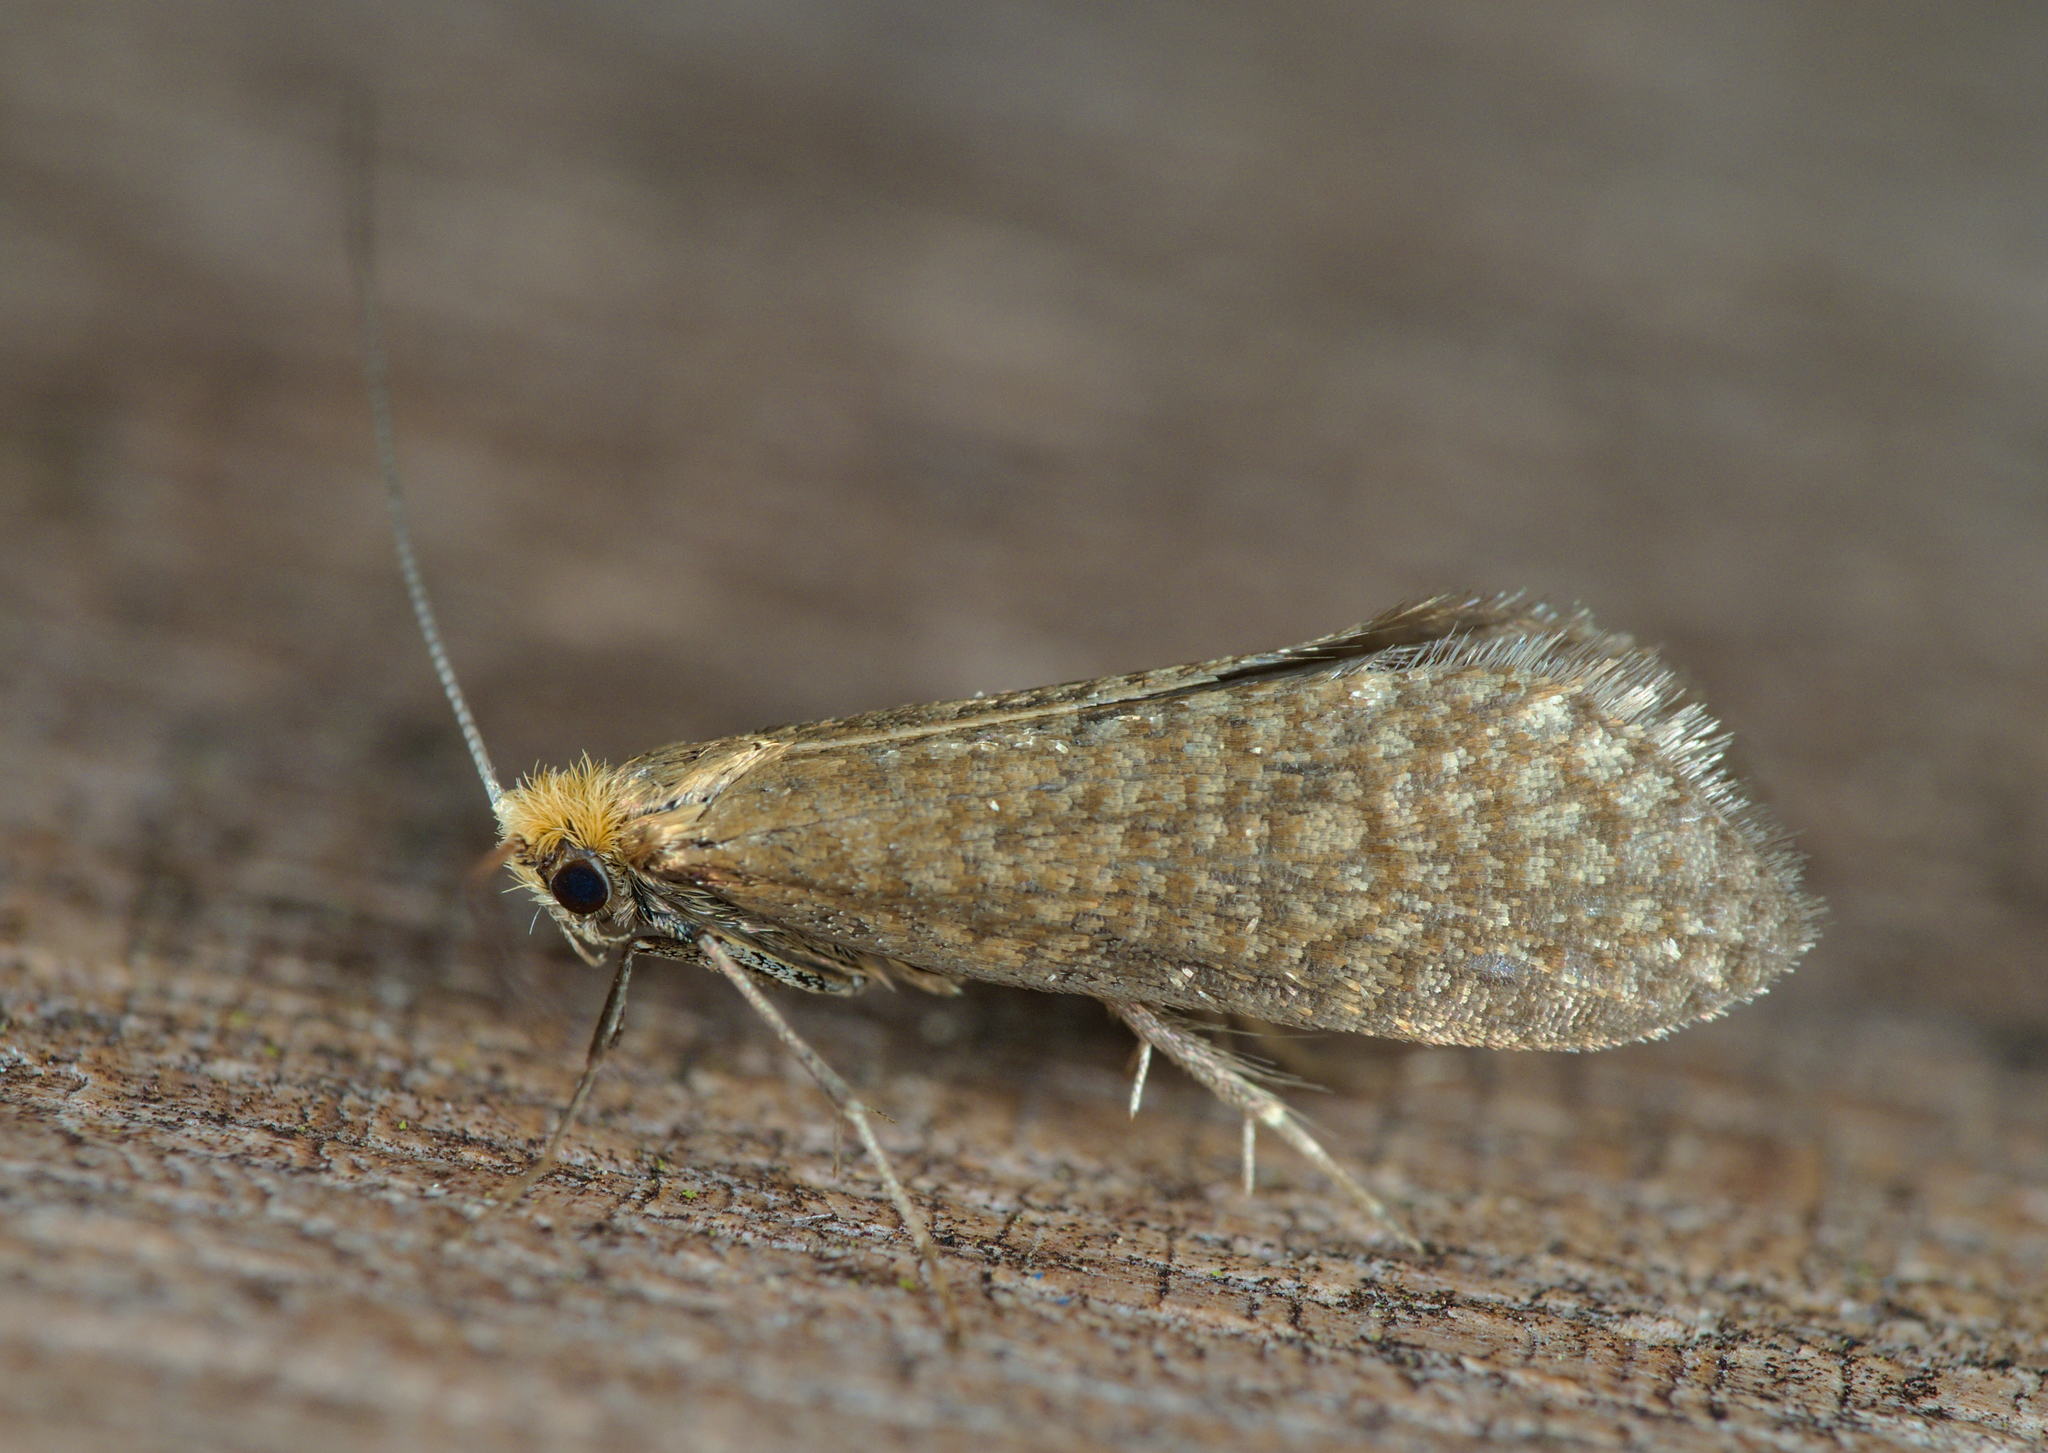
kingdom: Animalia
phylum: Arthropoda
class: Insecta
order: Lepidoptera
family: Adelidae
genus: Nematopogon
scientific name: Nematopogon adansoniella
